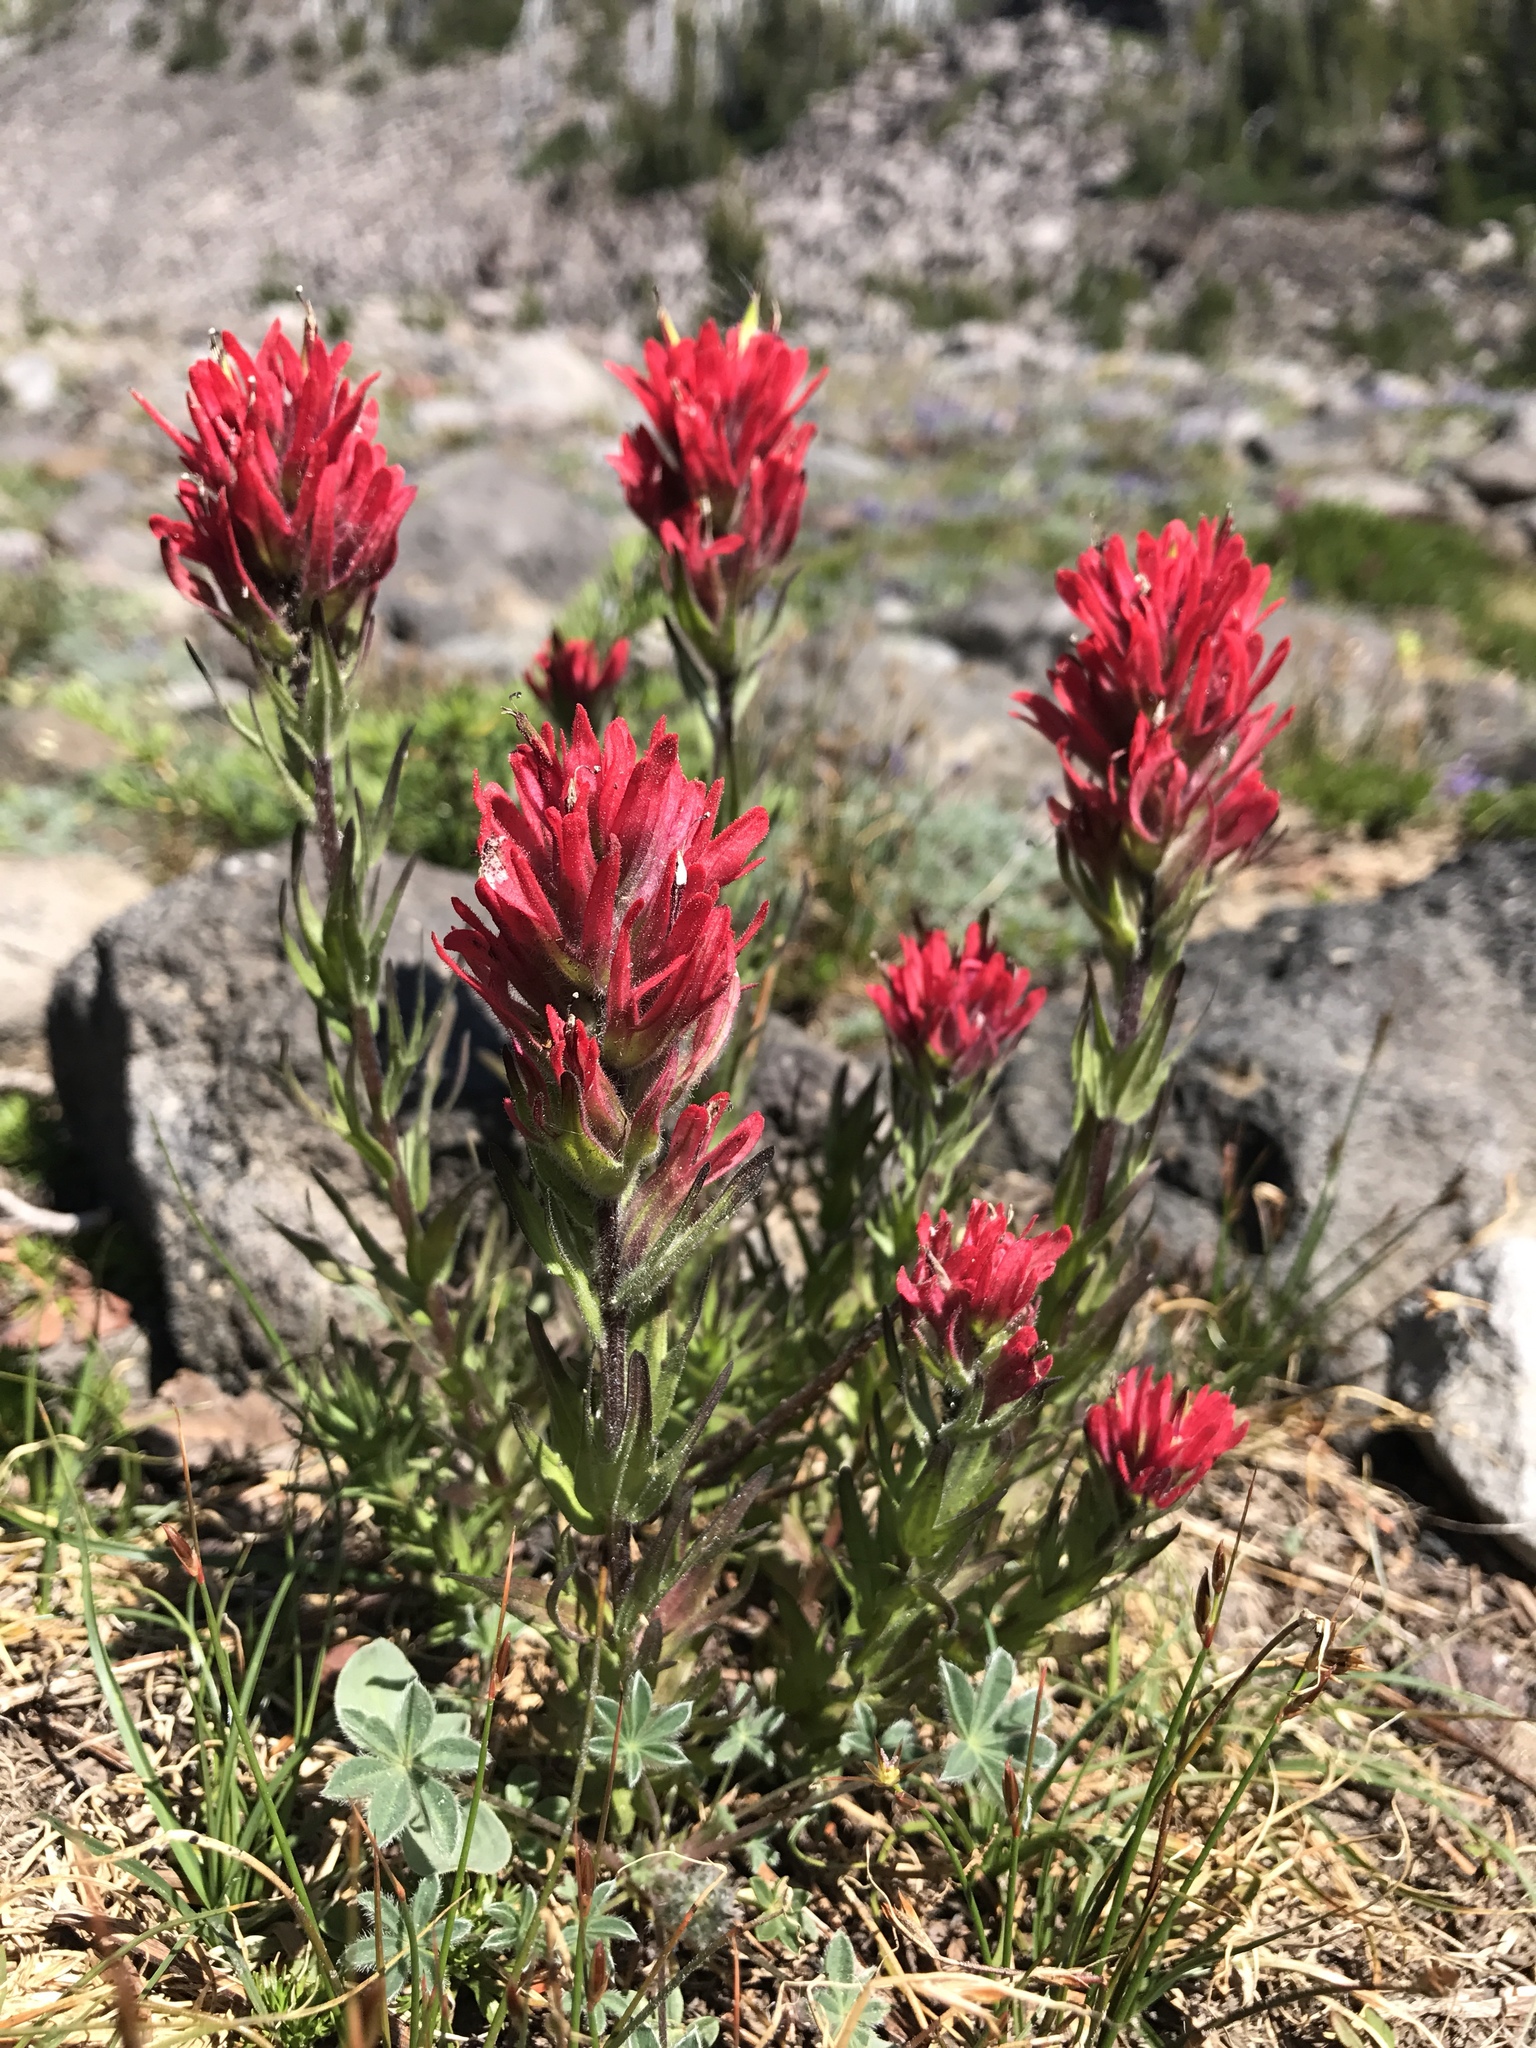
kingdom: Plantae
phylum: Tracheophyta
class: Magnoliopsida
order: Lamiales
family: Orobanchaceae
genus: Castilleja
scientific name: Castilleja parviflora
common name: Mountain paintbrush
